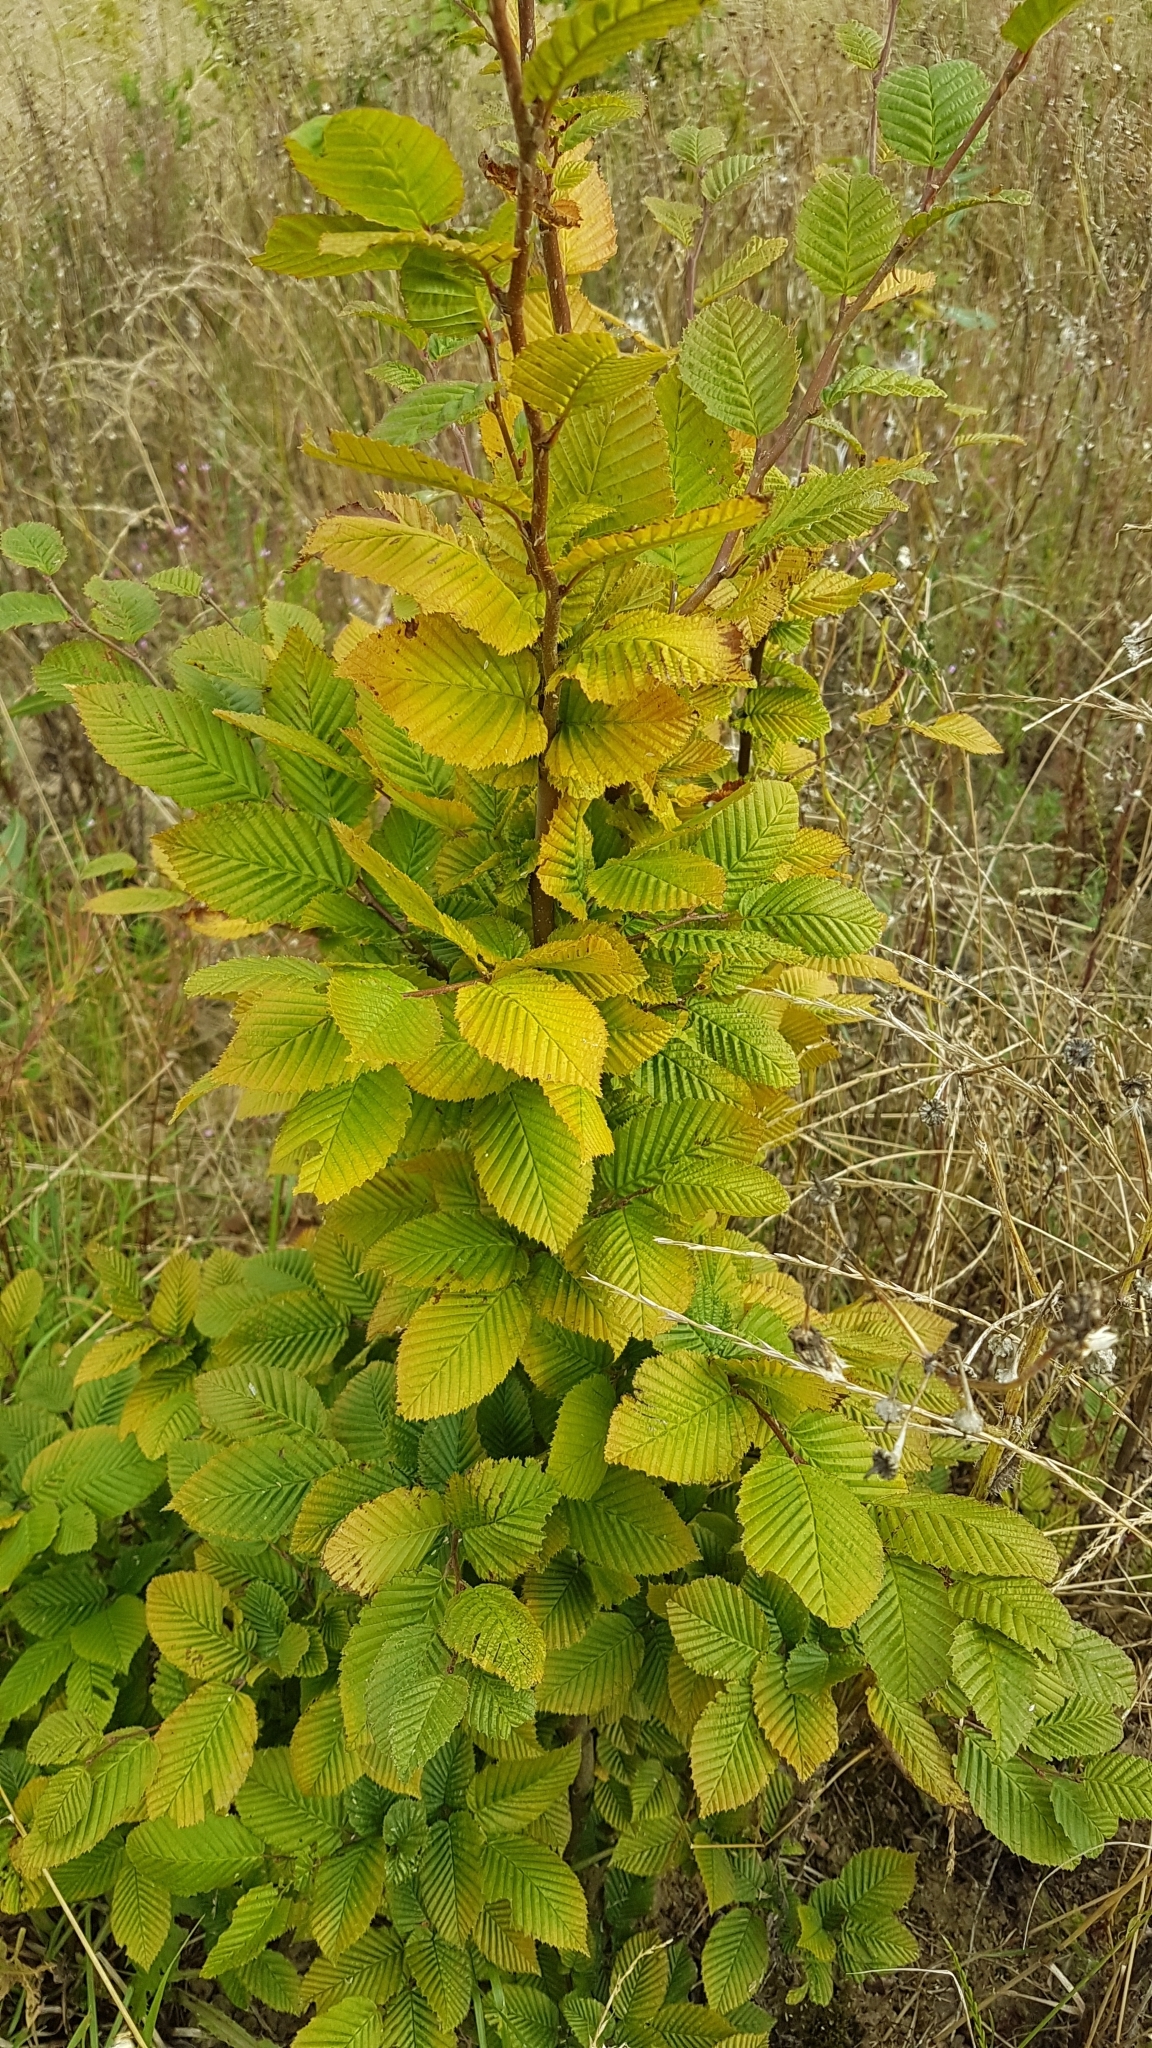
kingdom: Plantae
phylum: Tracheophyta
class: Magnoliopsida
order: Fagales
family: Betulaceae
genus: Carpinus
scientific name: Carpinus betulus
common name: Hornbeam
